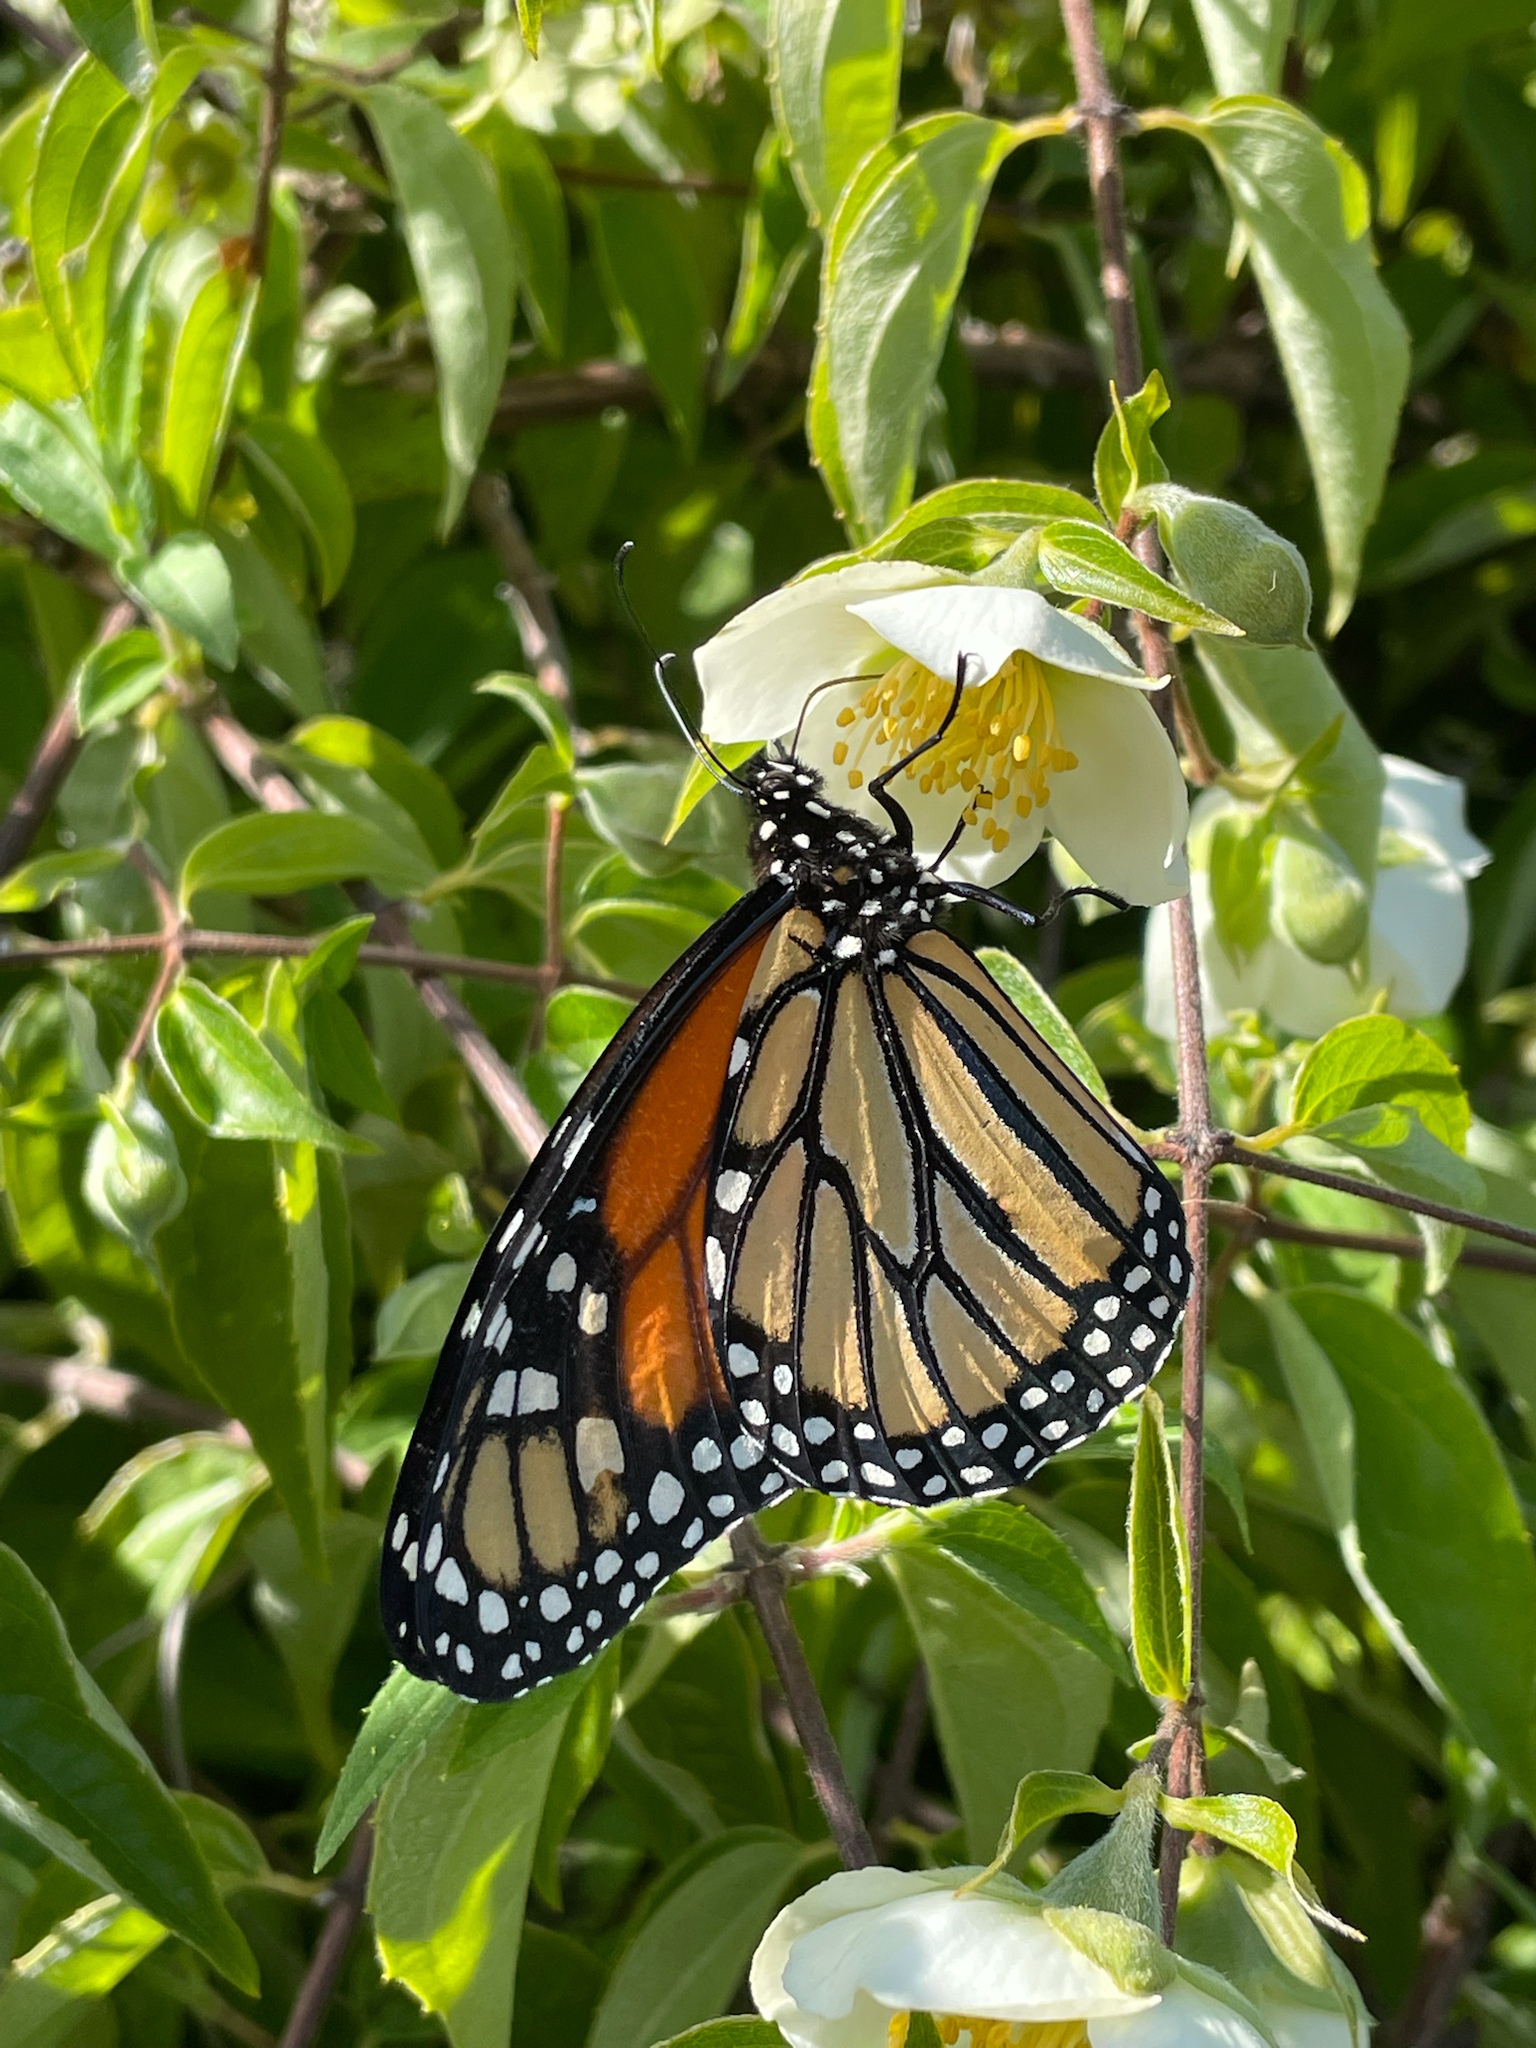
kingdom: Animalia
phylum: Arthropoda
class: Insecta
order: Lepidoptera
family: Nymphalidae
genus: Danaus
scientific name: Danaus plexippus
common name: Monarch
